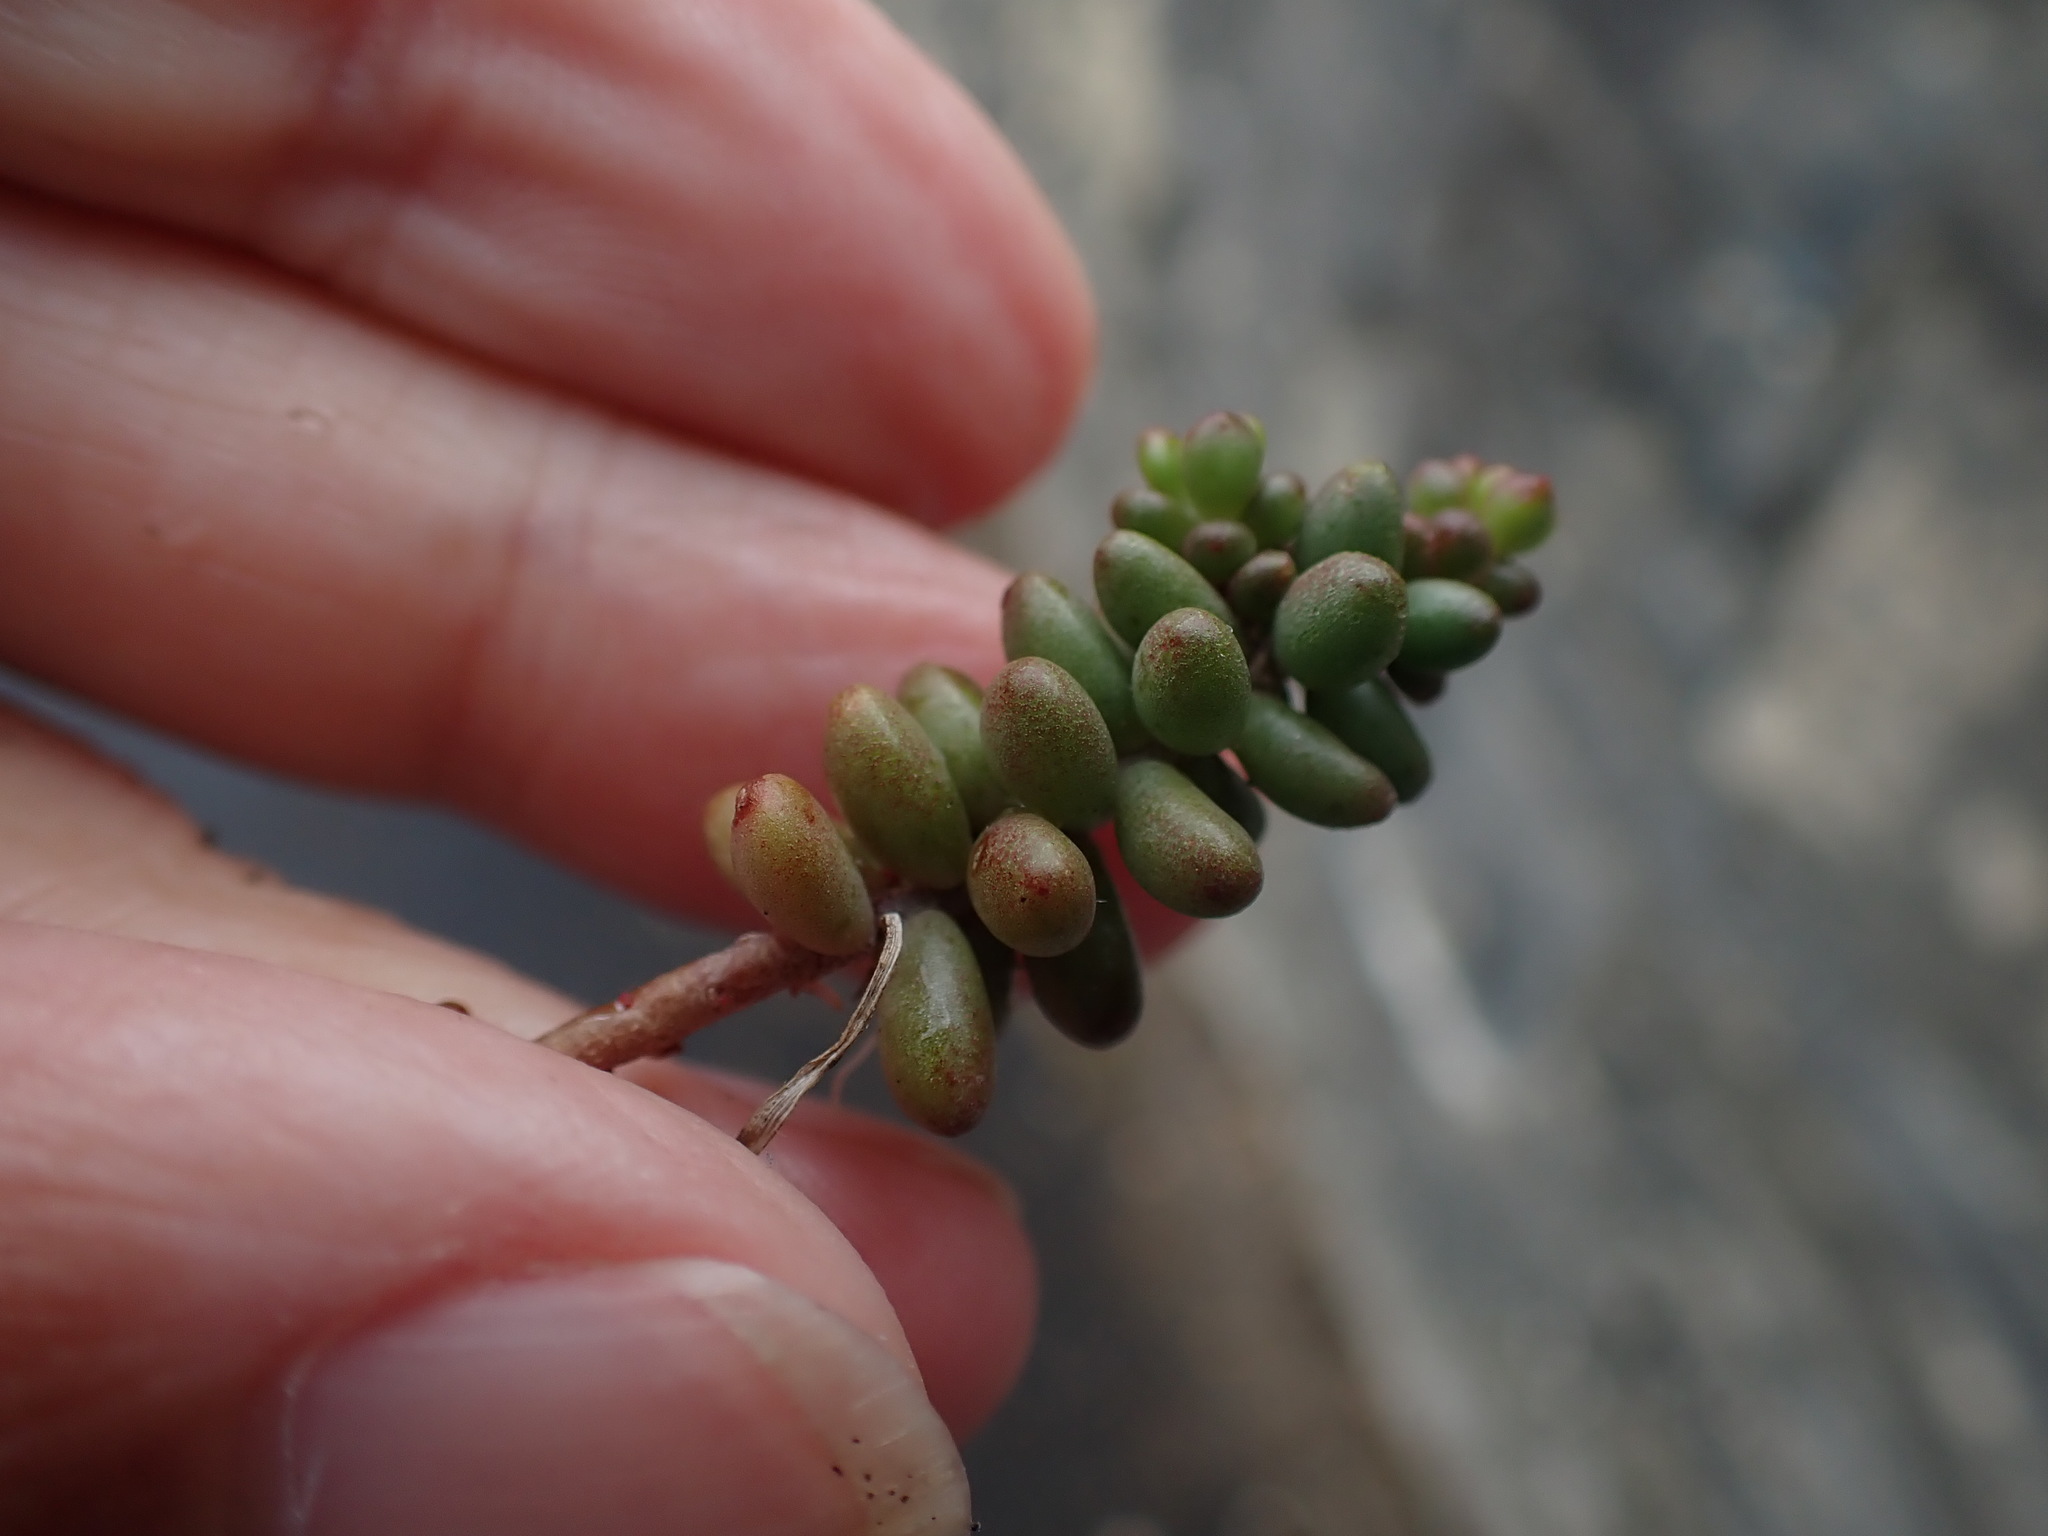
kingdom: Plantae
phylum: Tracheophyta
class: Magnoliopsida
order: Saxifragales
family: Crassulaceae
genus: Sedum
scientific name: Sedum album
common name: White stonecrop
